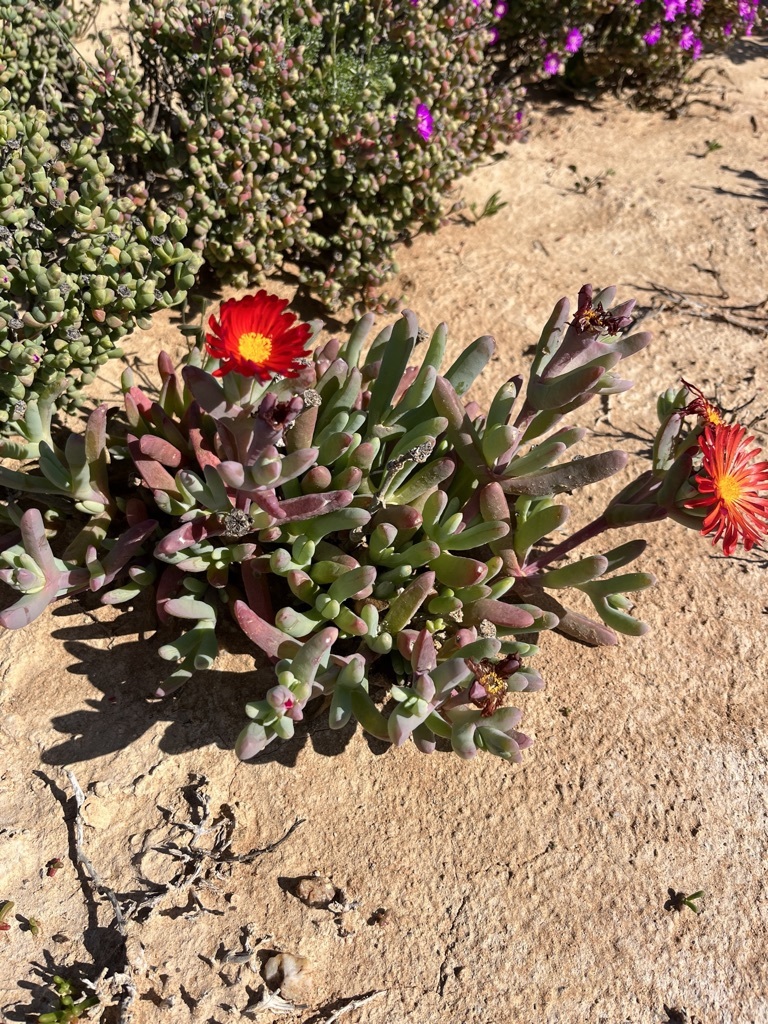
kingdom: Plantae
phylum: Tracheophyta
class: Magnoliopsida
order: Caryophyllales
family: Aizoaceae
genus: Malephora
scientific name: Malephora purpureocrocea
